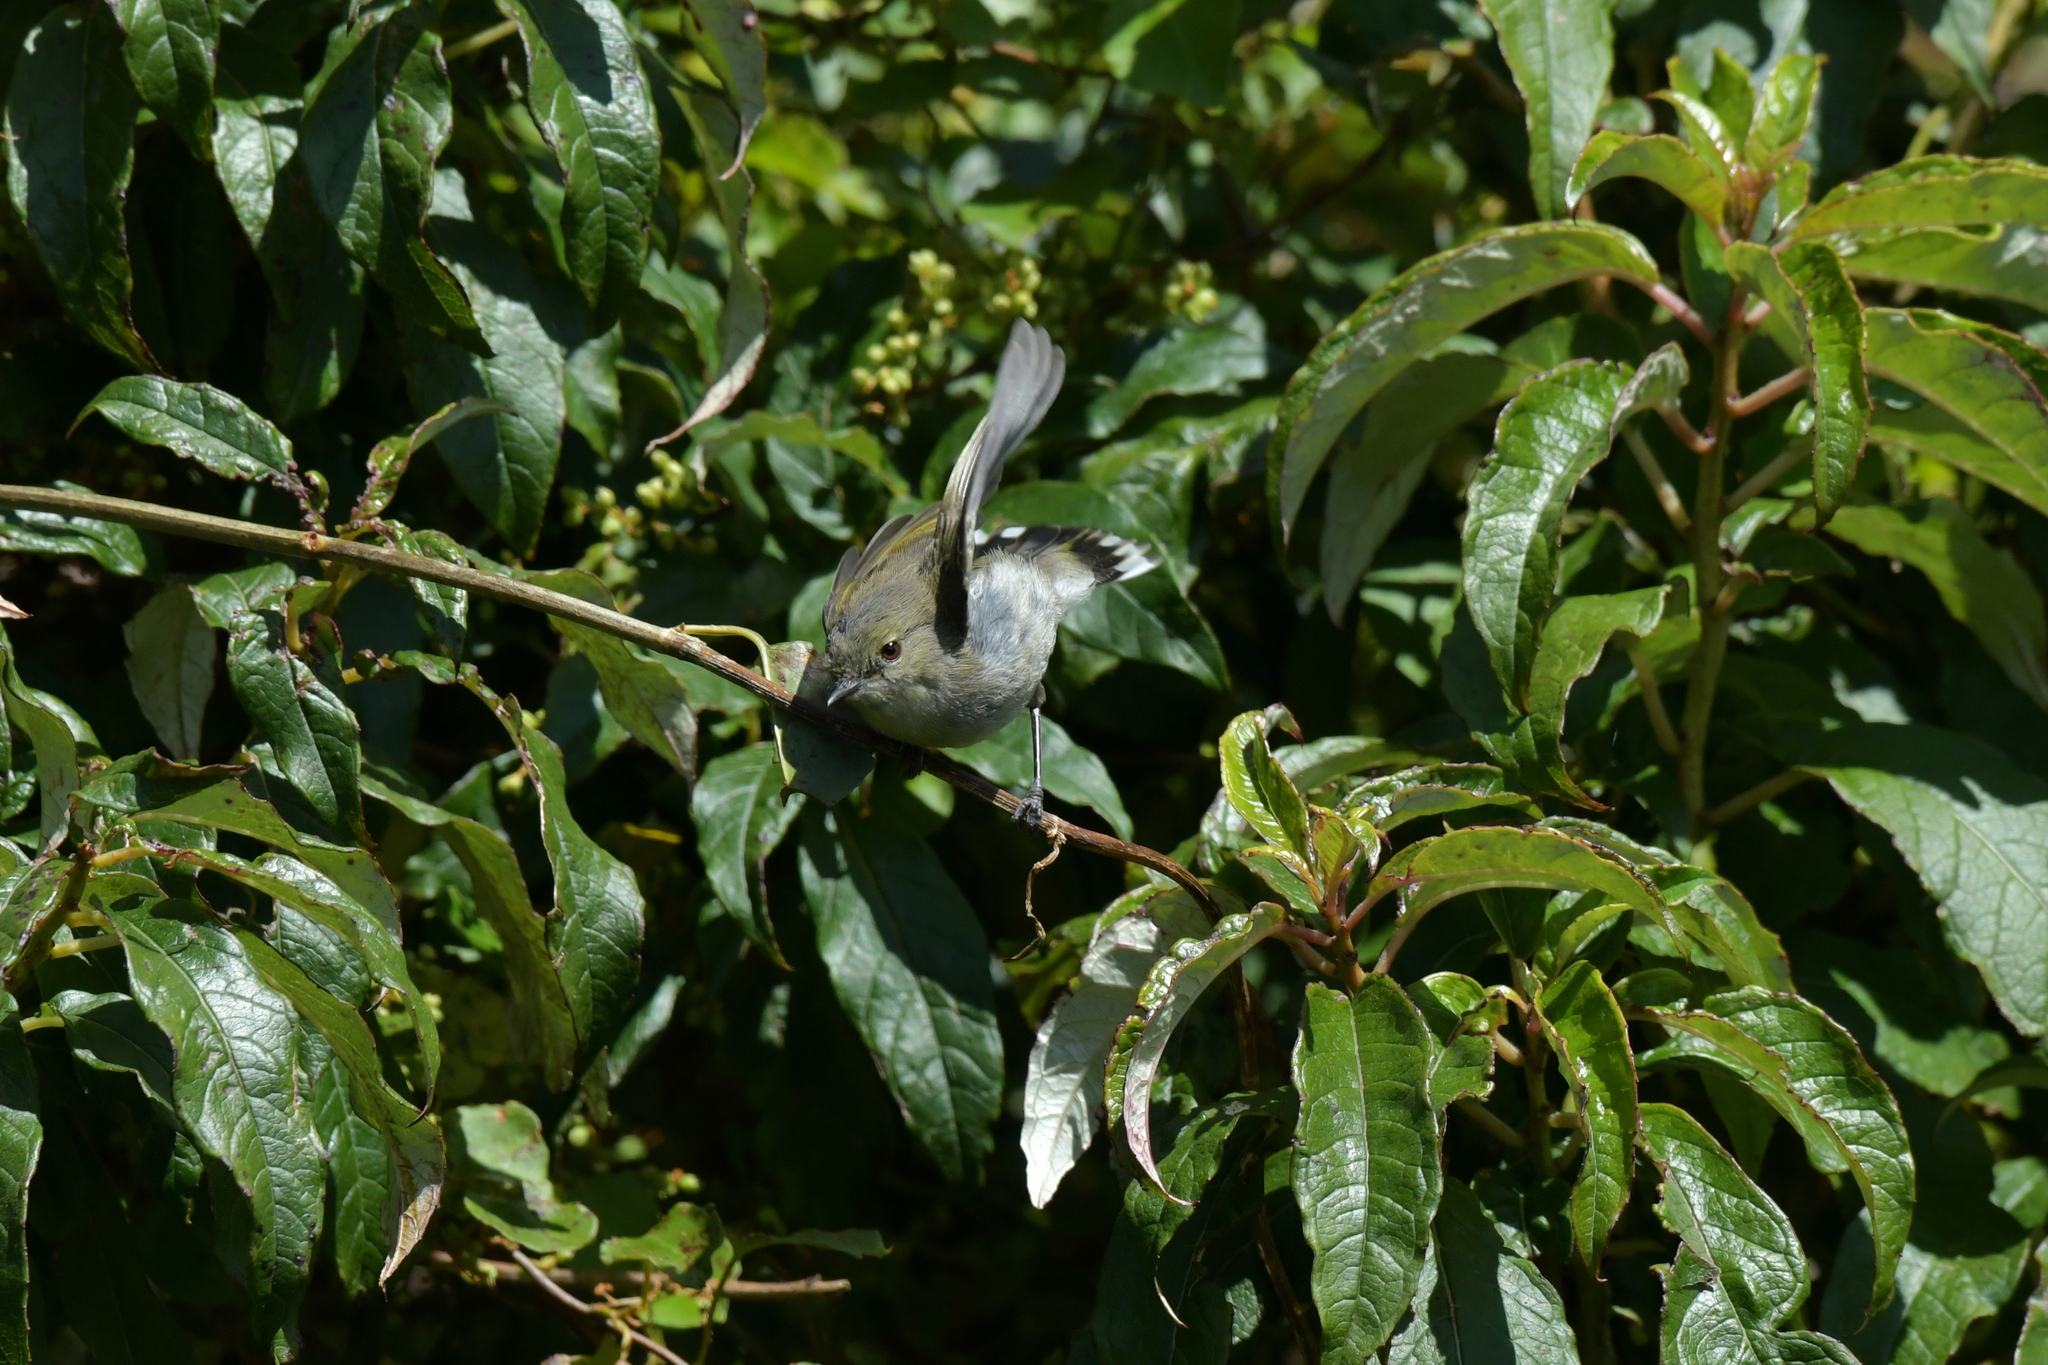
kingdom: Animalia
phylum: Chordata
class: Aves
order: Passeriformes
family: Acanthizidae
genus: Gerygone
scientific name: Gerygone igata
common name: Grey gerygone
